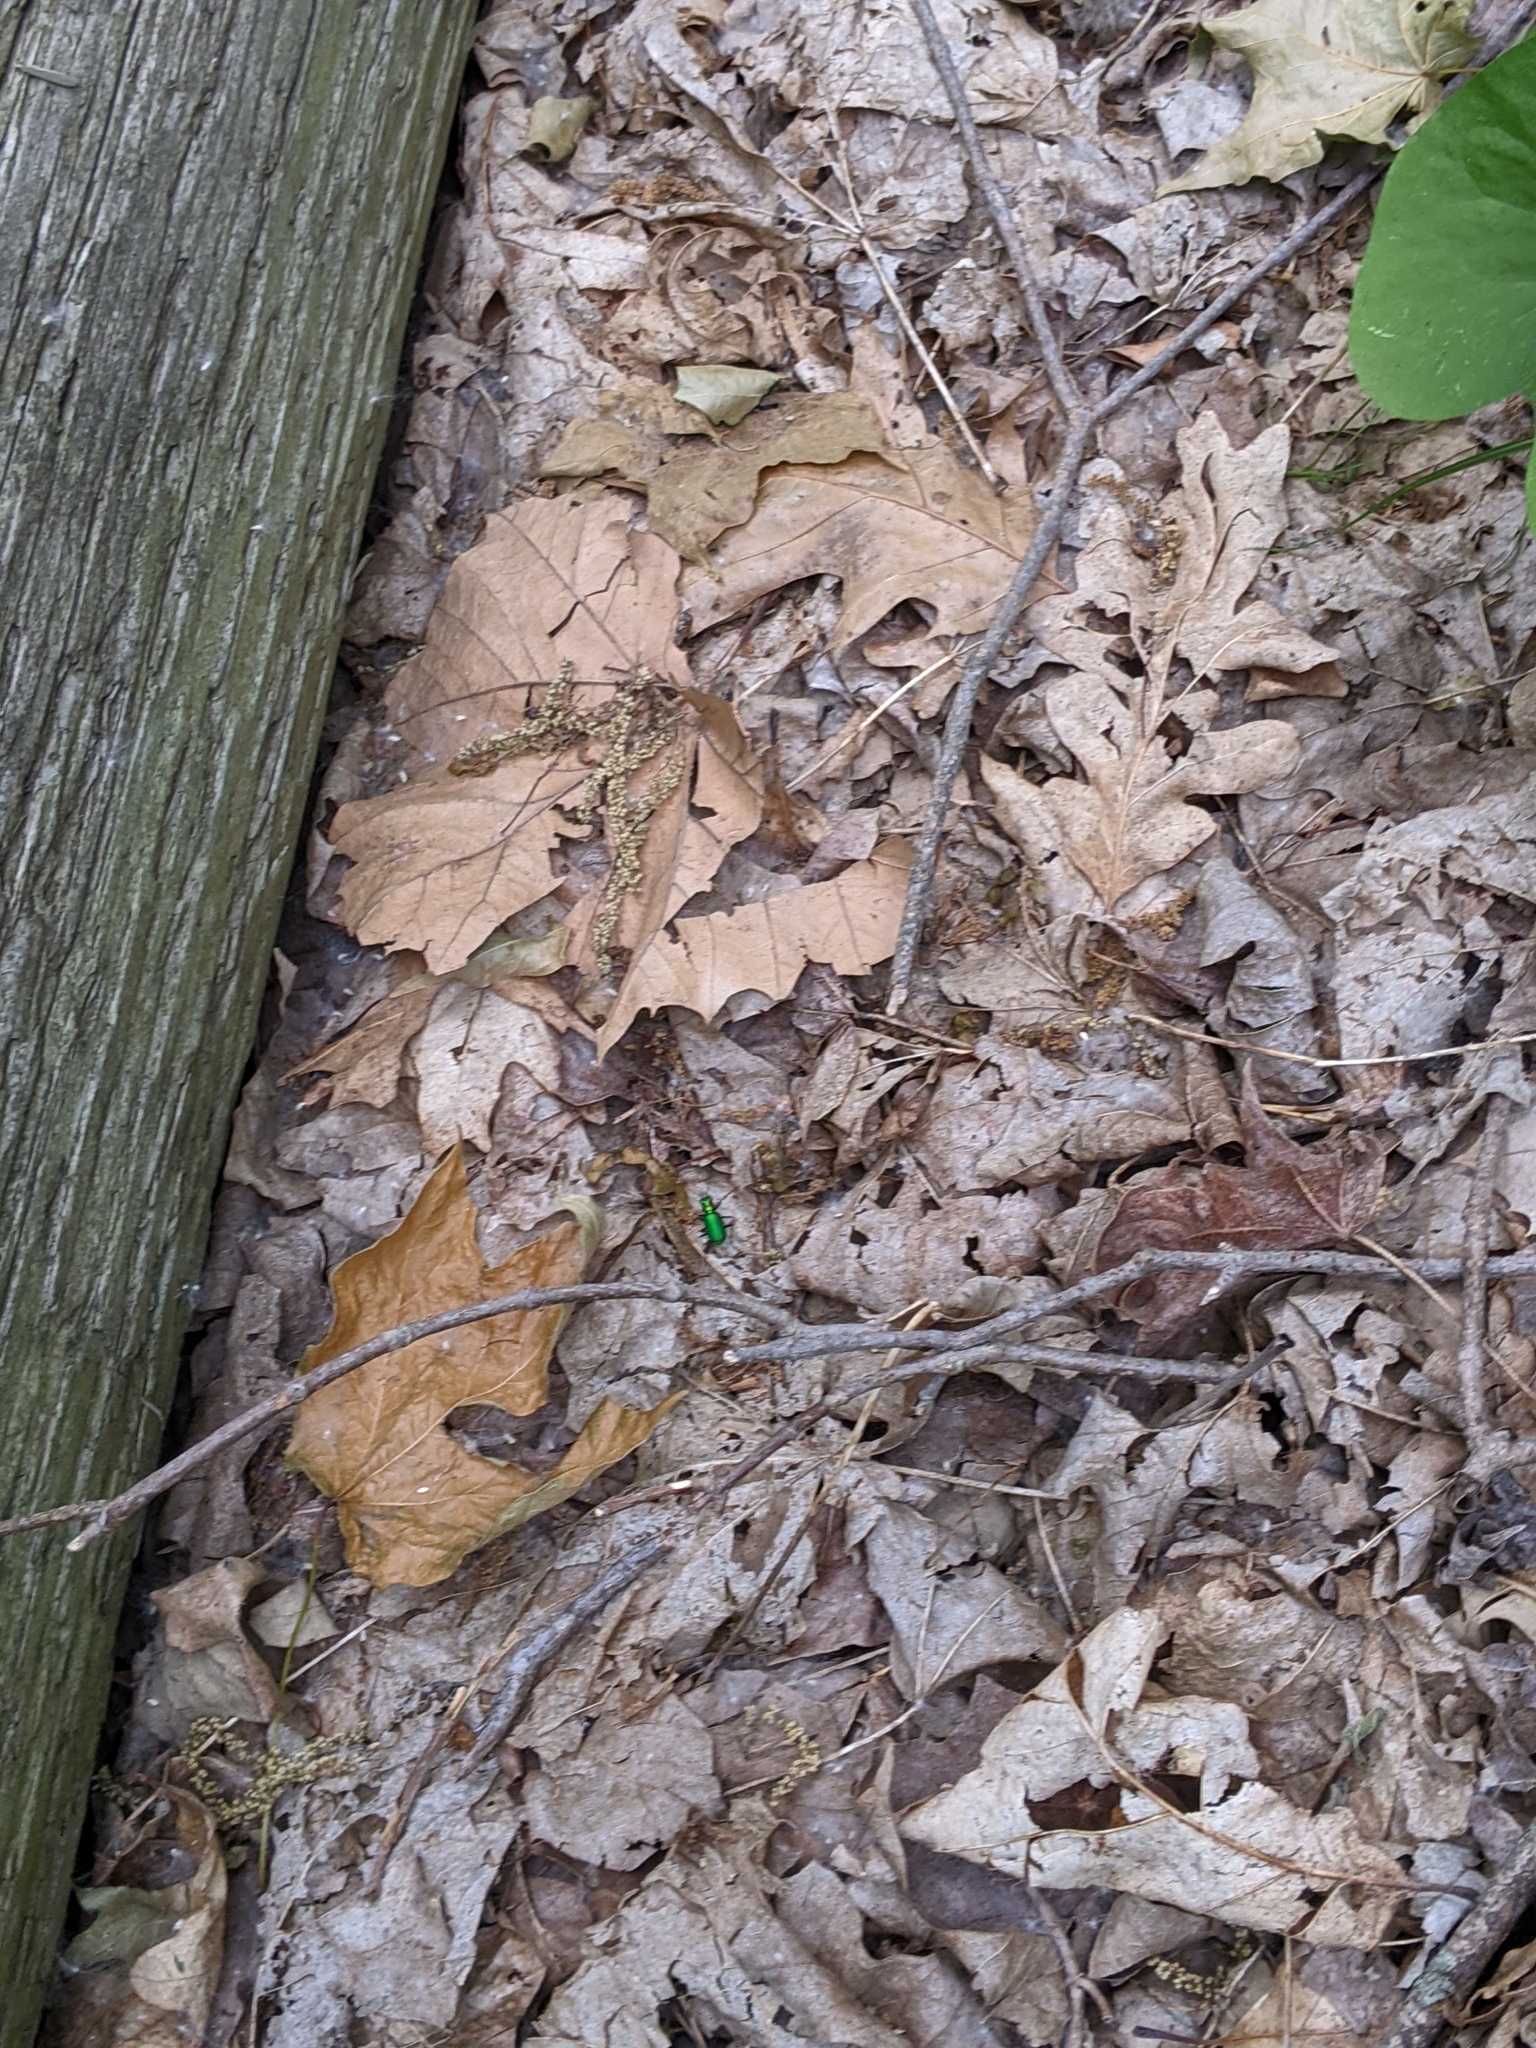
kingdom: Animalia
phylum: Arthropoda
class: Insecta
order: Coleoptera
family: Carabidae
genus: Cicindela
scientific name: Cicindela sexguttata
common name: Six-spotted tiger beetle
